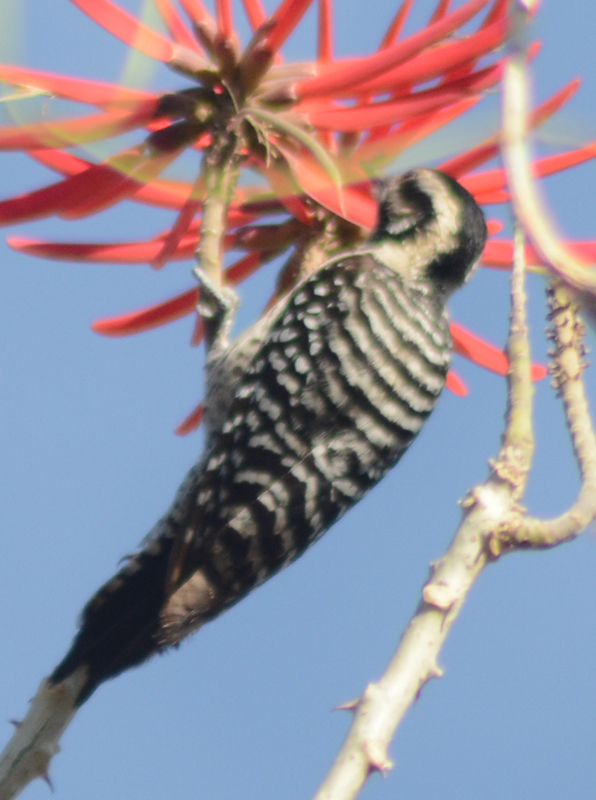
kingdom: Animalia
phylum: Chordata
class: Aves
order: Piciformes
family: Picidae
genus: Dryobates
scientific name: Dryobates scalaris
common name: Ladder-backed woodpecker
